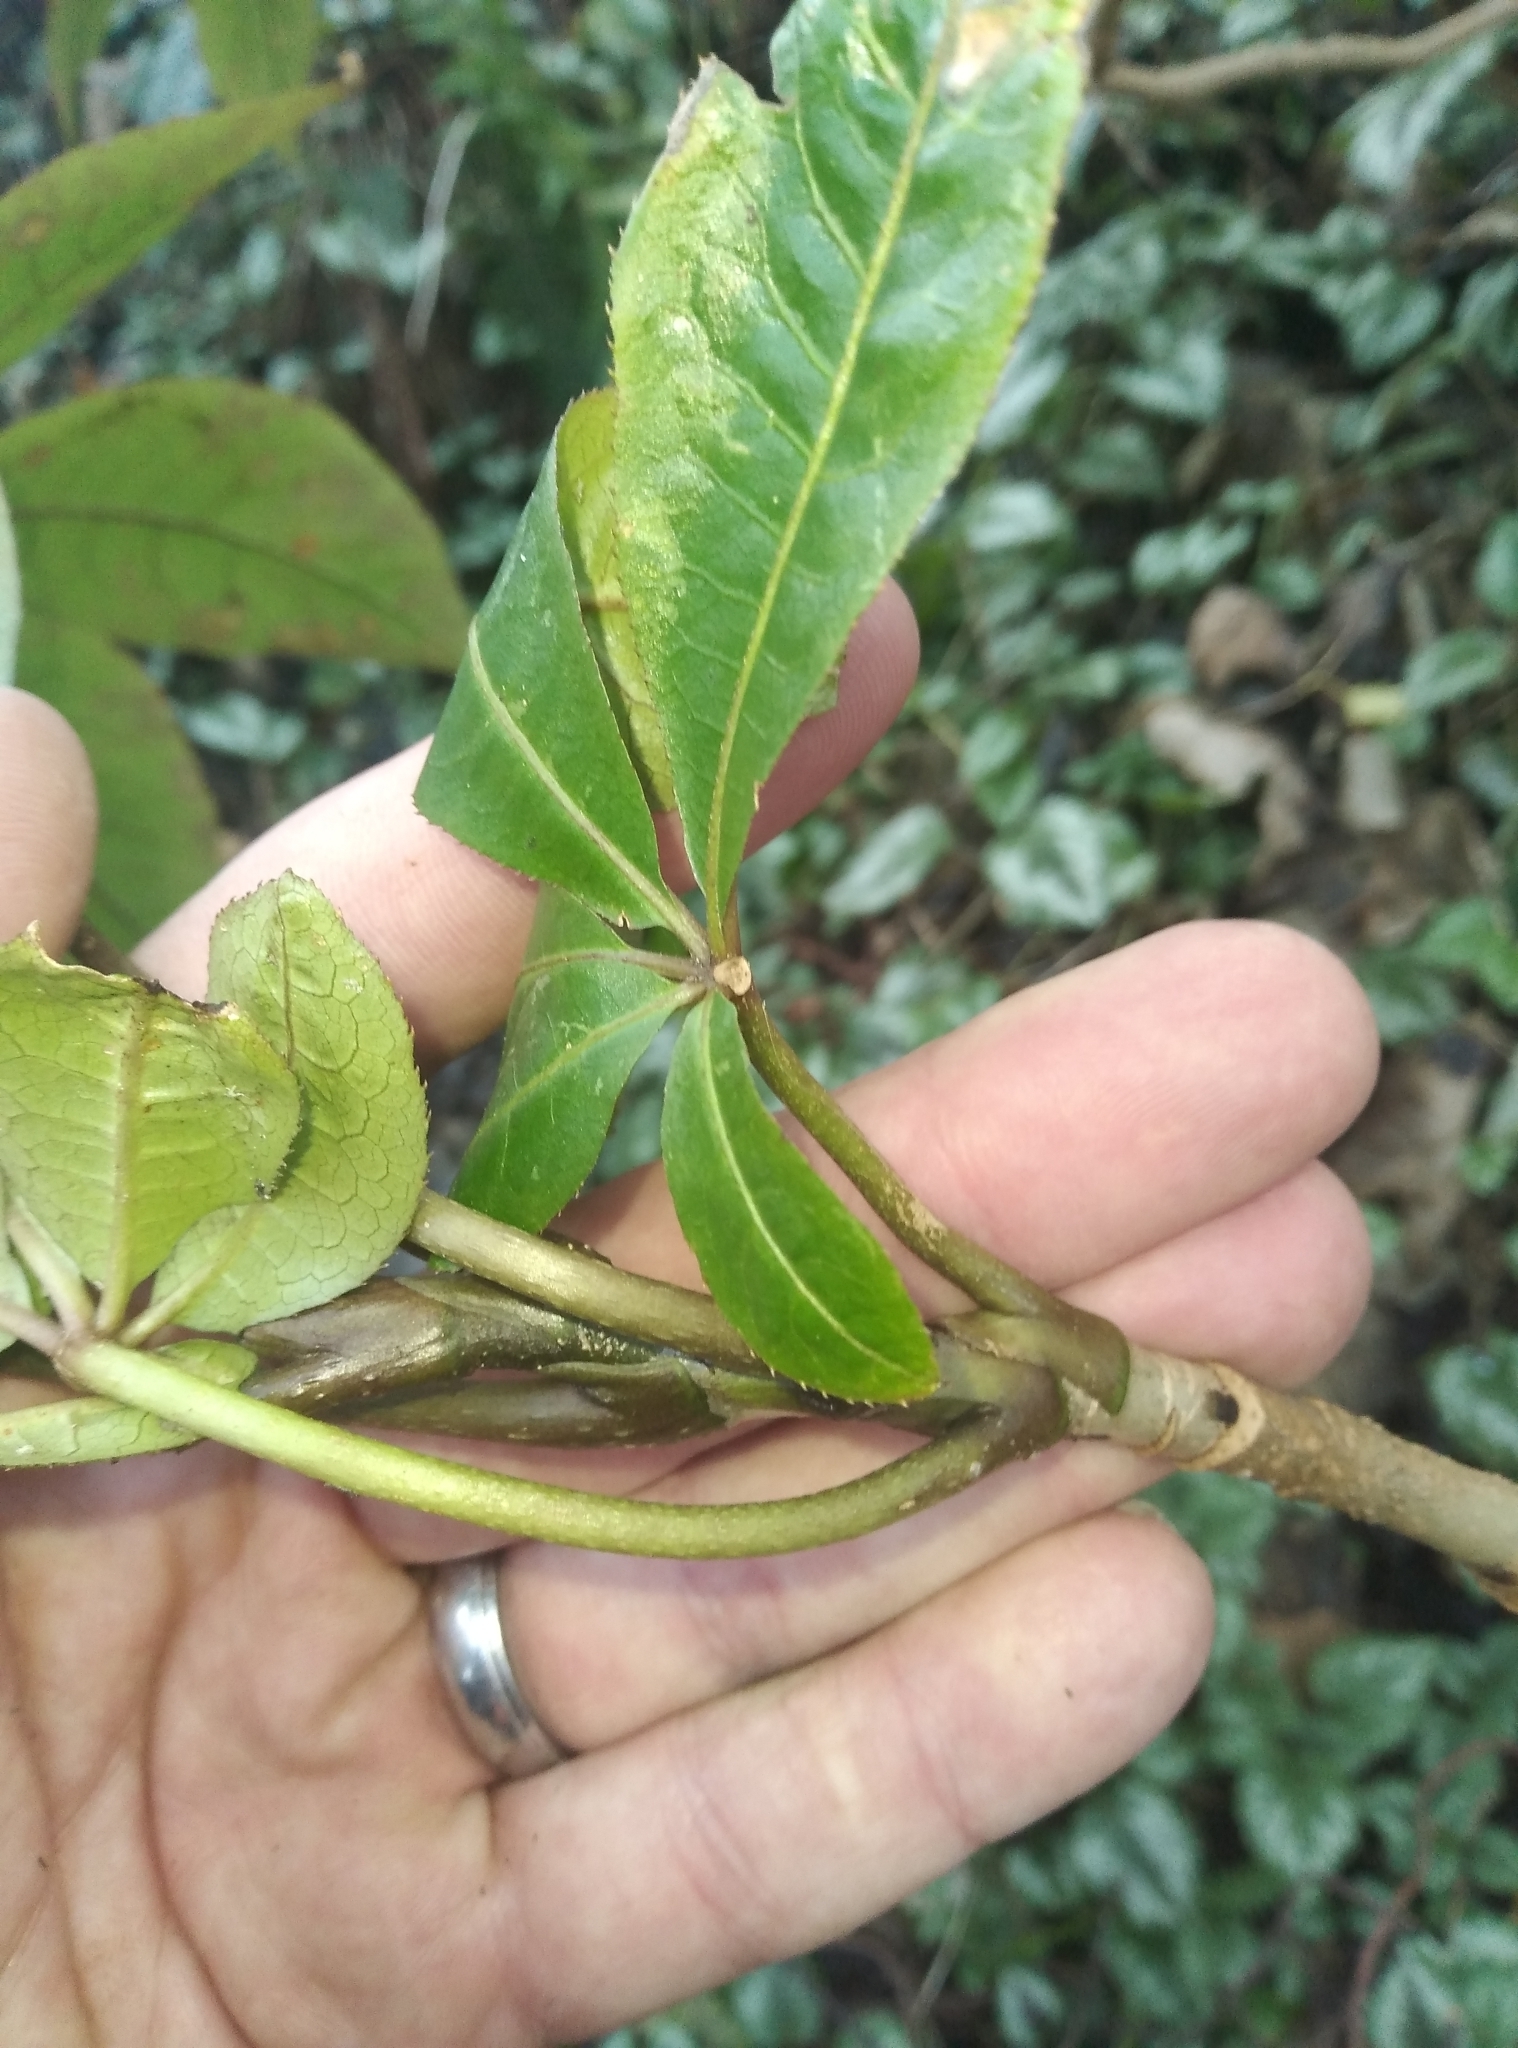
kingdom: Plantae
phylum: Tracheophyta
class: Magnoliopsida
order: Apiales
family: Araliaceae
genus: Schefflera
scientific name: Schefflera digitata
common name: Pate
